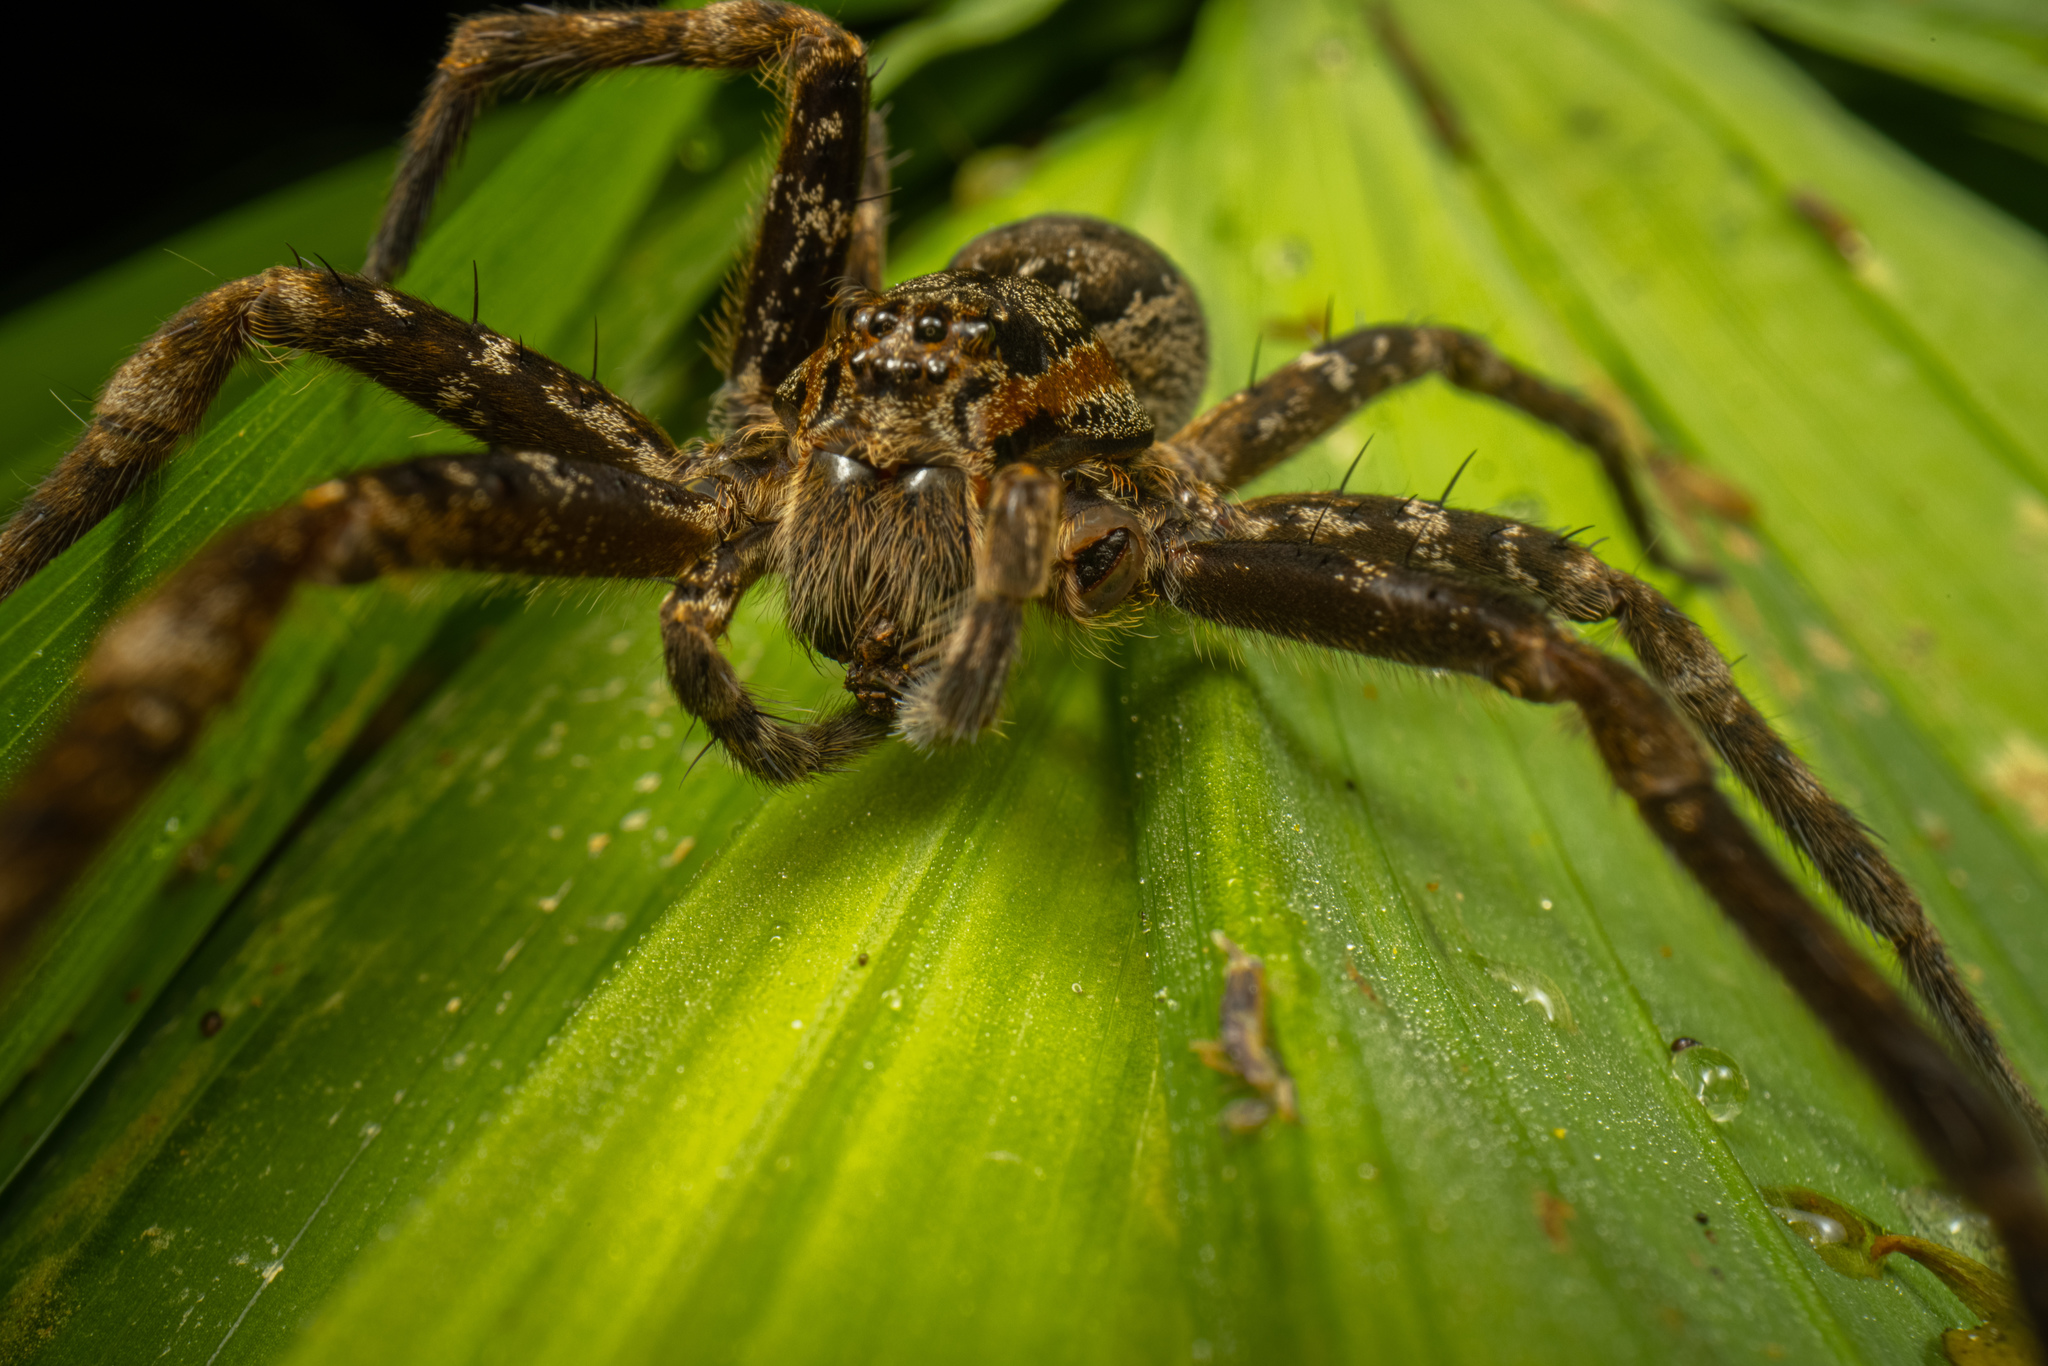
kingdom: Animalia
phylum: Arthropoda
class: Arachnida
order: Araneae
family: Pisauridae
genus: Dolomedes
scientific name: Dolomedes dondalei
